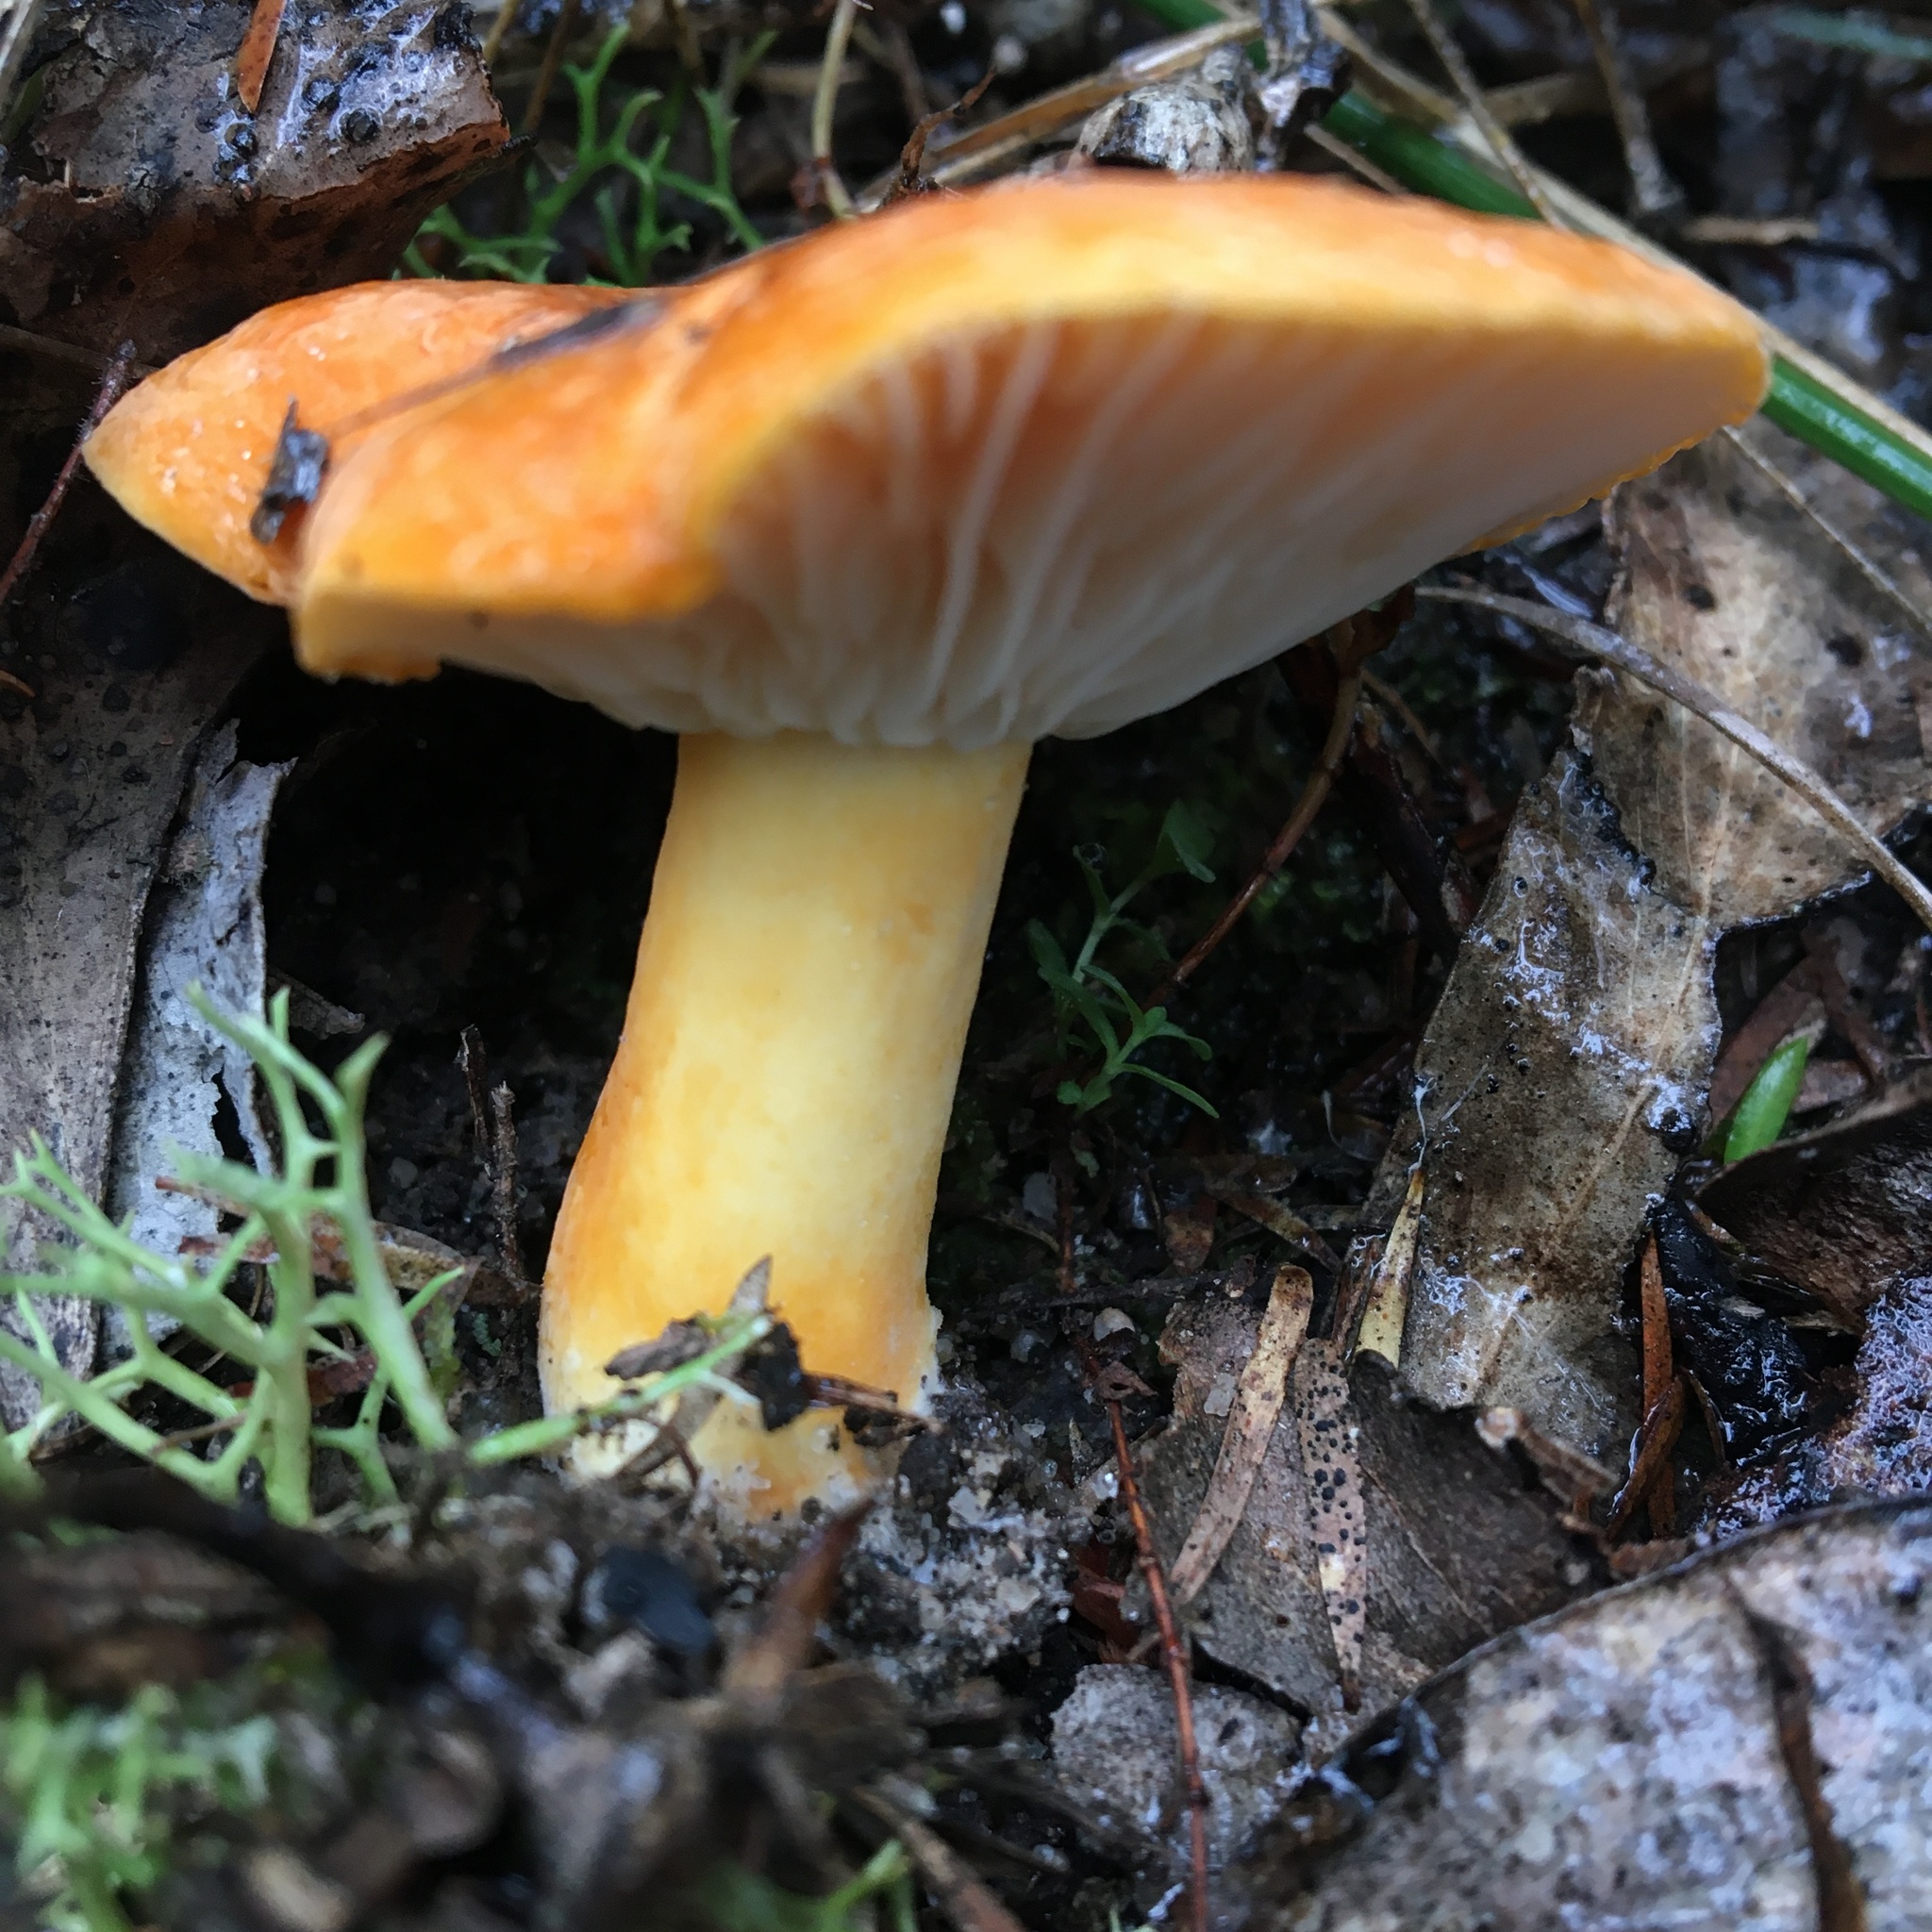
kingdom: Fungi
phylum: Basidiomycota
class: Agaricomycetes
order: Russulales
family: Russulaceae
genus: Lactifluus
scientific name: Lactifluus flocktoniae
